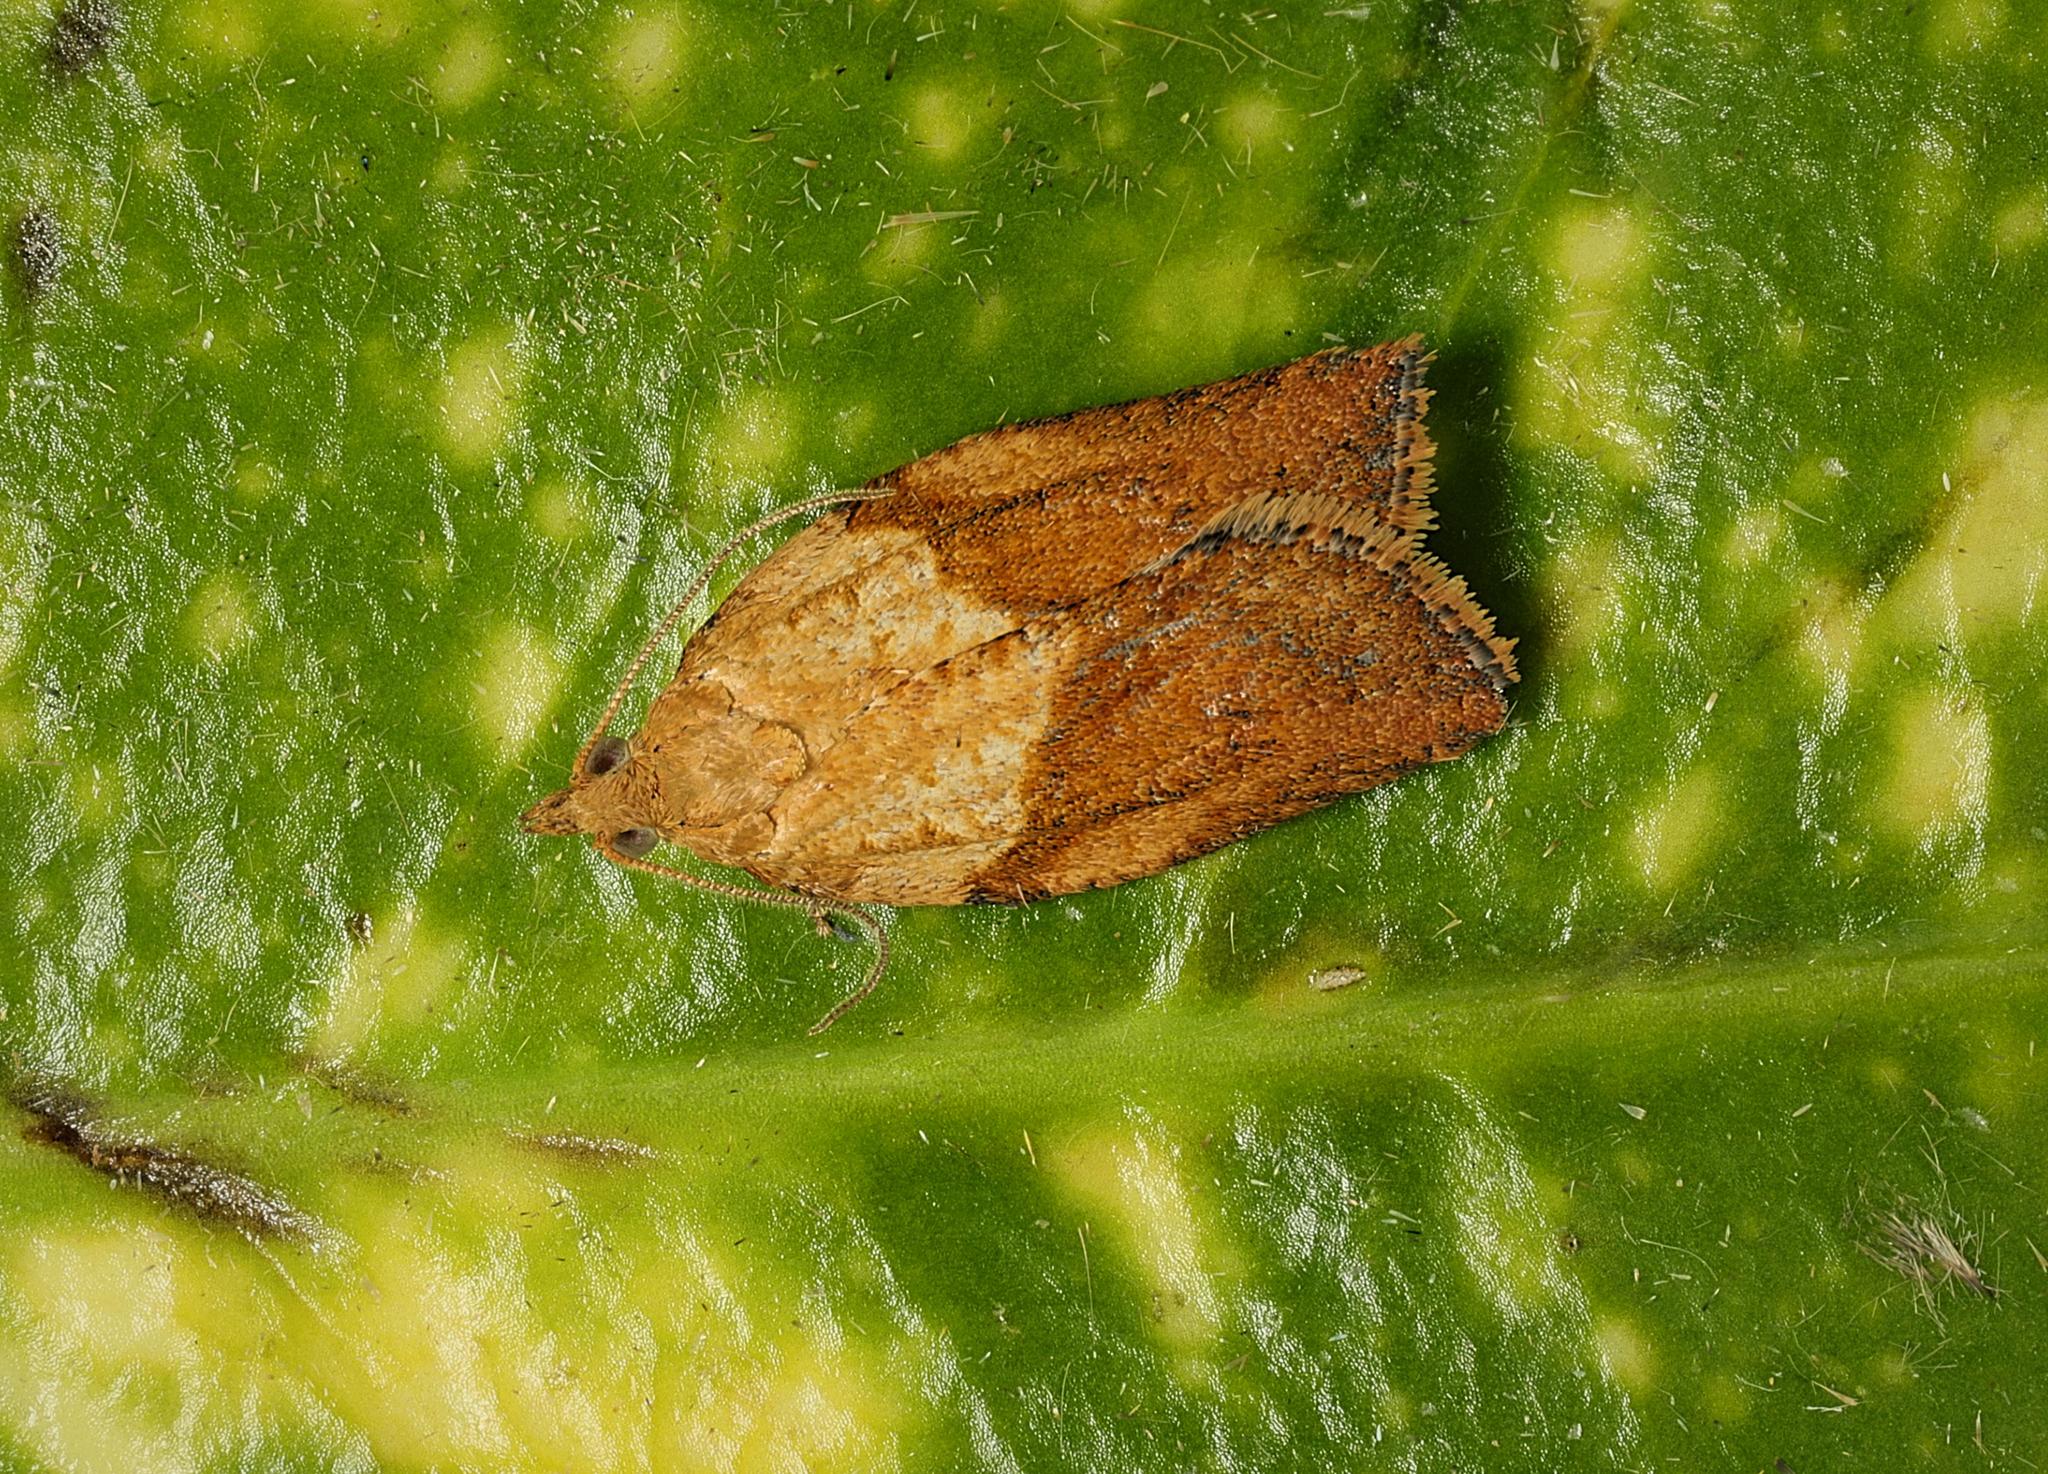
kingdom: Animalia
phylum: Arthropoda
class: Insecta
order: Lepidoptera
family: Tortricidae
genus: Epiphyas
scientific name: Epiphyas postvittana
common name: Light brown apple moth
